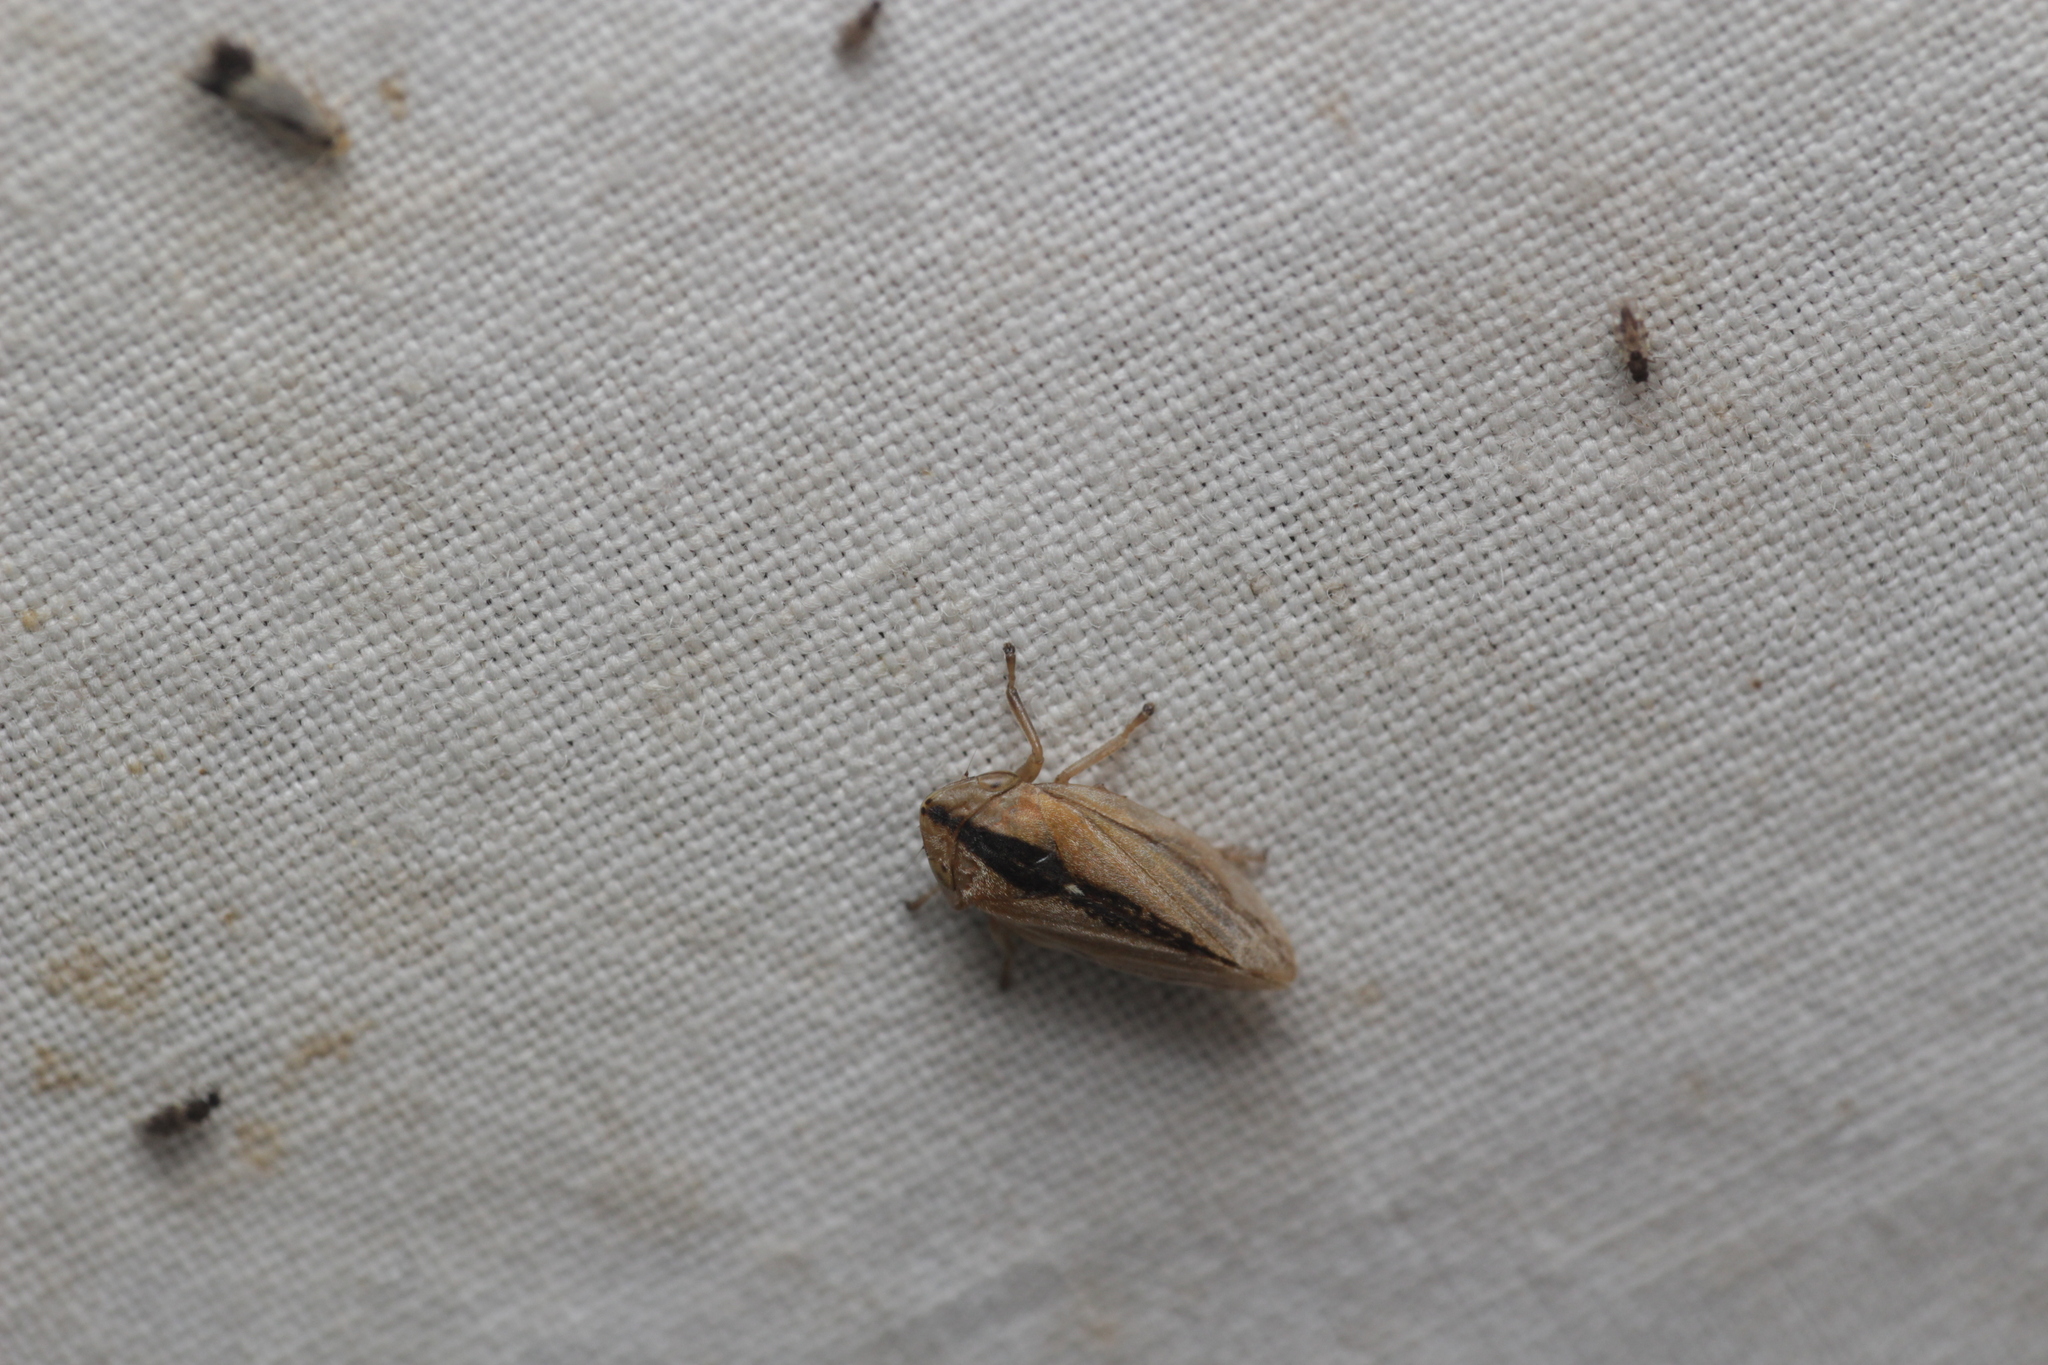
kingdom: Animalia
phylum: Arthropoda
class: Insecta
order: Hemiptera
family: Aphrophoridae
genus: Philaenus
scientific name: Philaenus spumarius
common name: Meadow spittlebug
